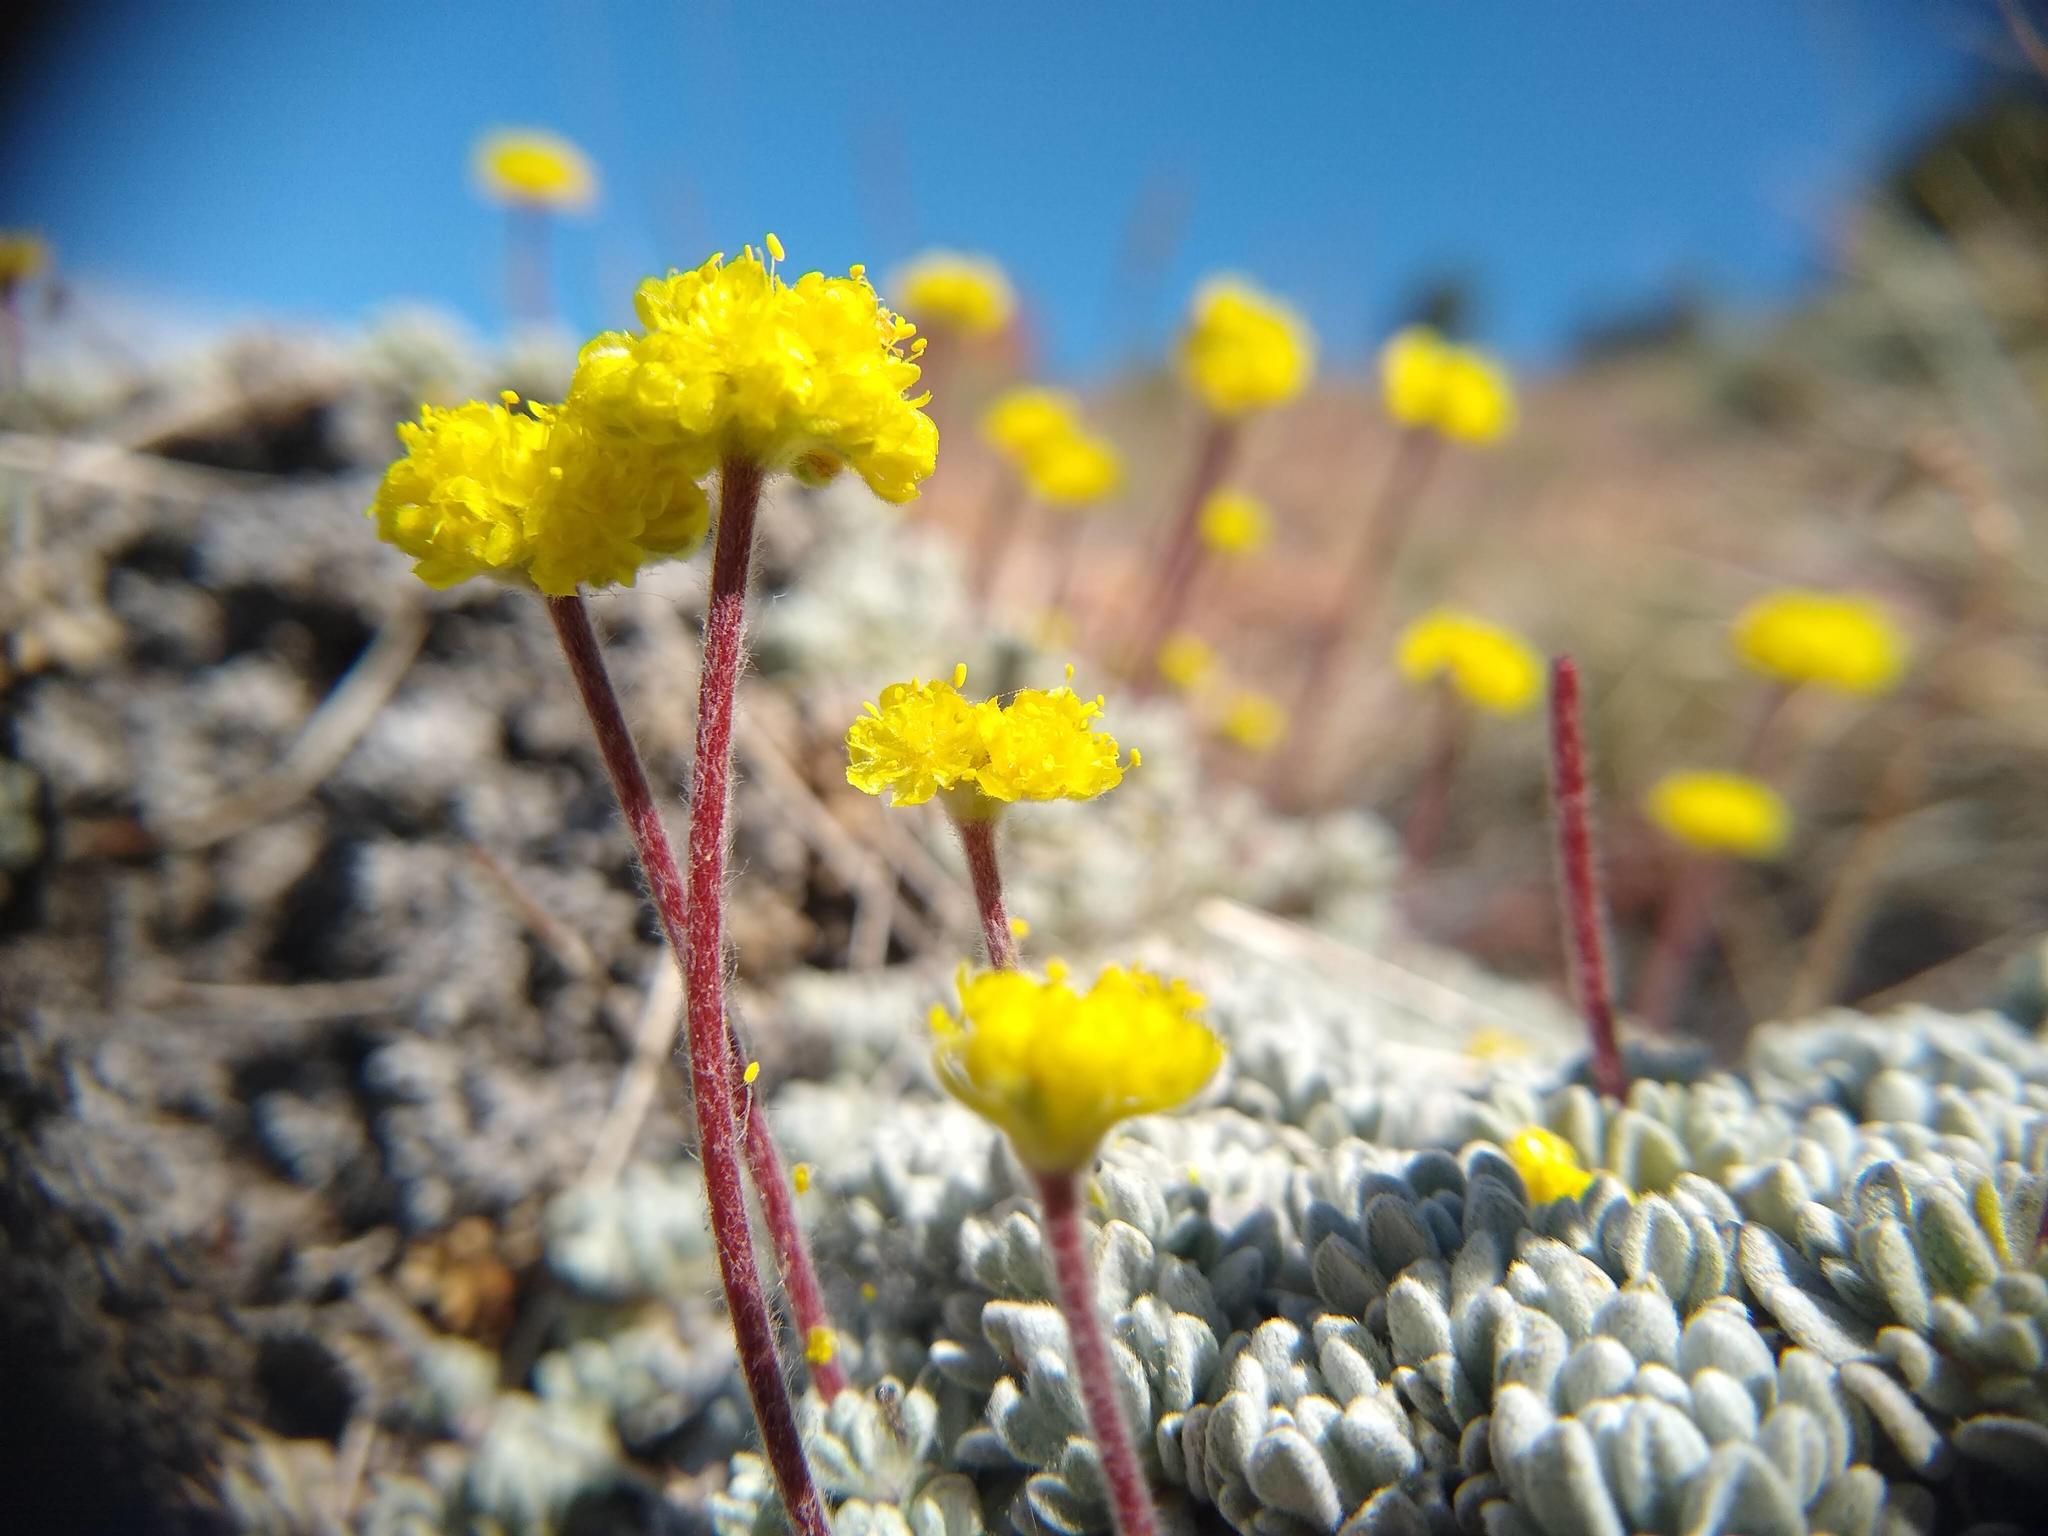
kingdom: Plantae
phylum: Tracheophyta
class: Magnoliopsida
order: Caryophyllales
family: Polygonaceae
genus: Eriogonum
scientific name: Eriogonum caespitosum
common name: Matted wild buckwheat
